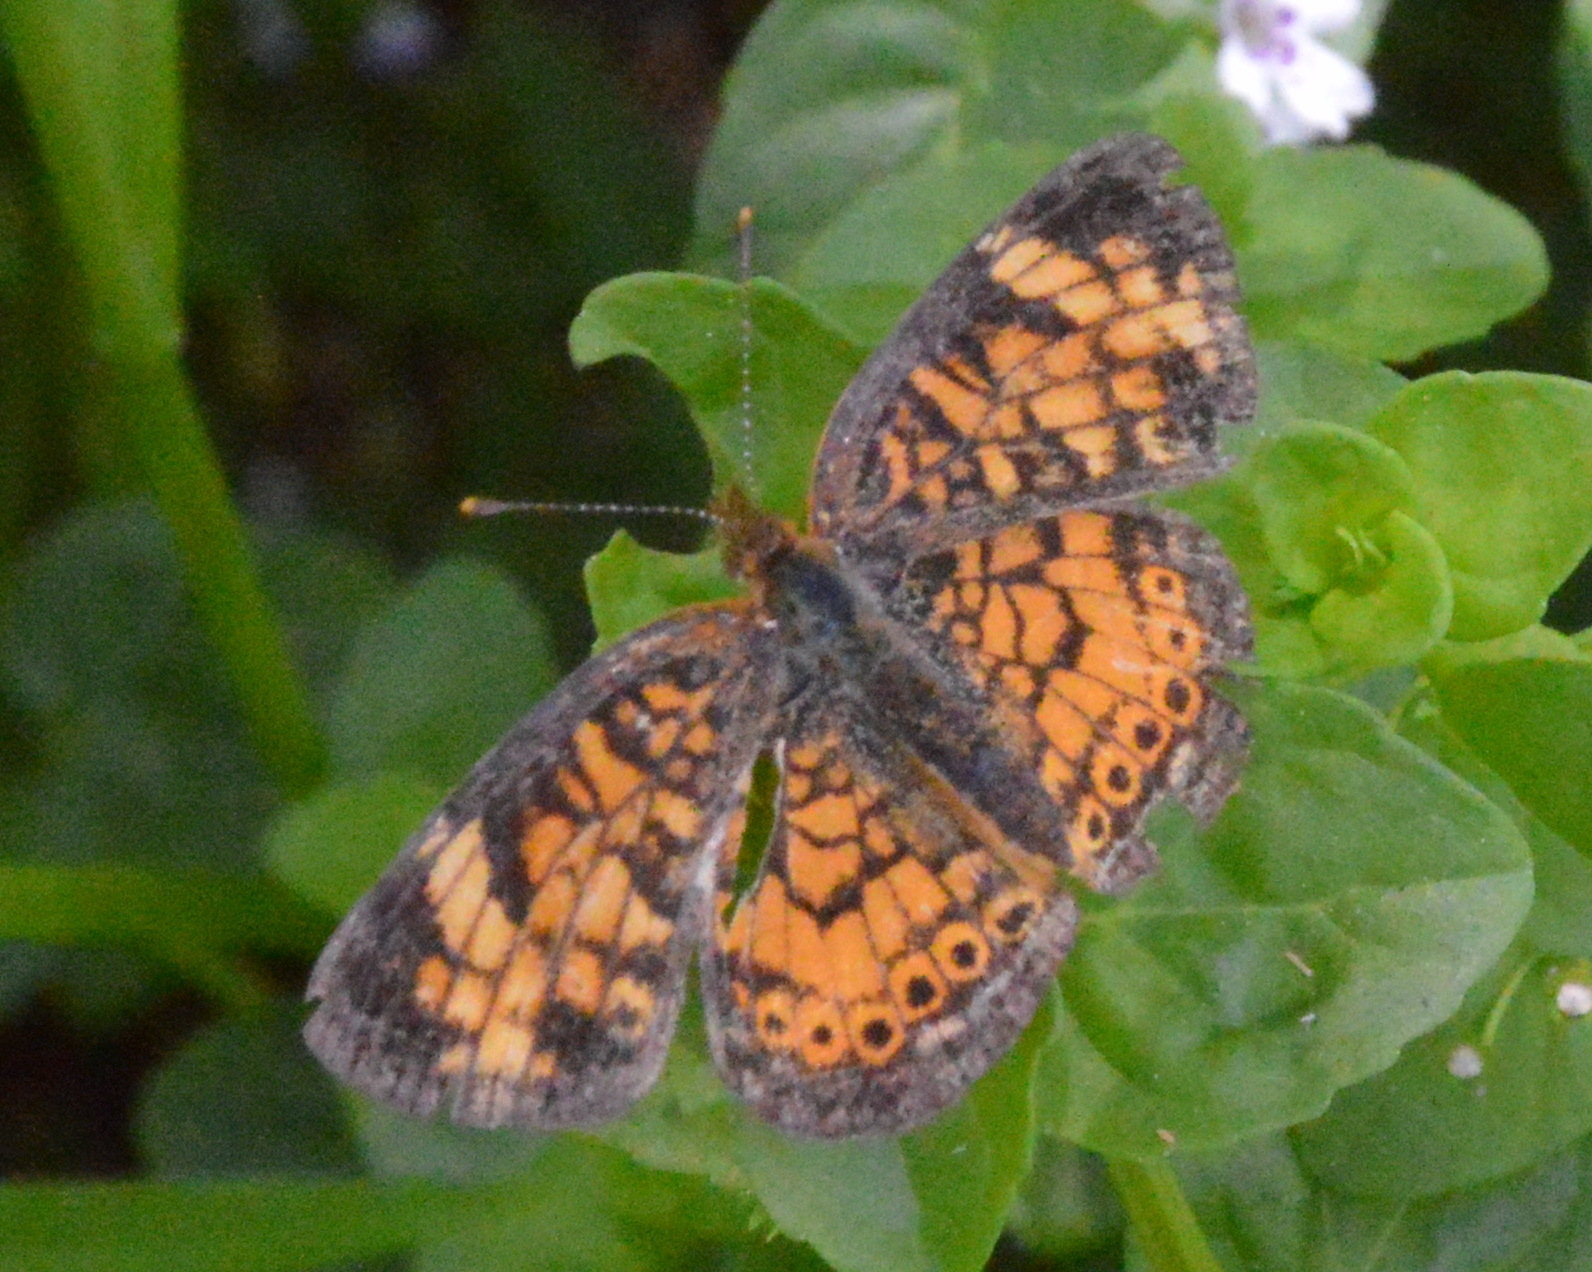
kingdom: Animalia
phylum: Arthropoda
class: Insecta
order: Lepidoptera
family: Nymphalidae
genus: Phyciodes
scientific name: Phyciodes tharos
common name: Pearl crescent
